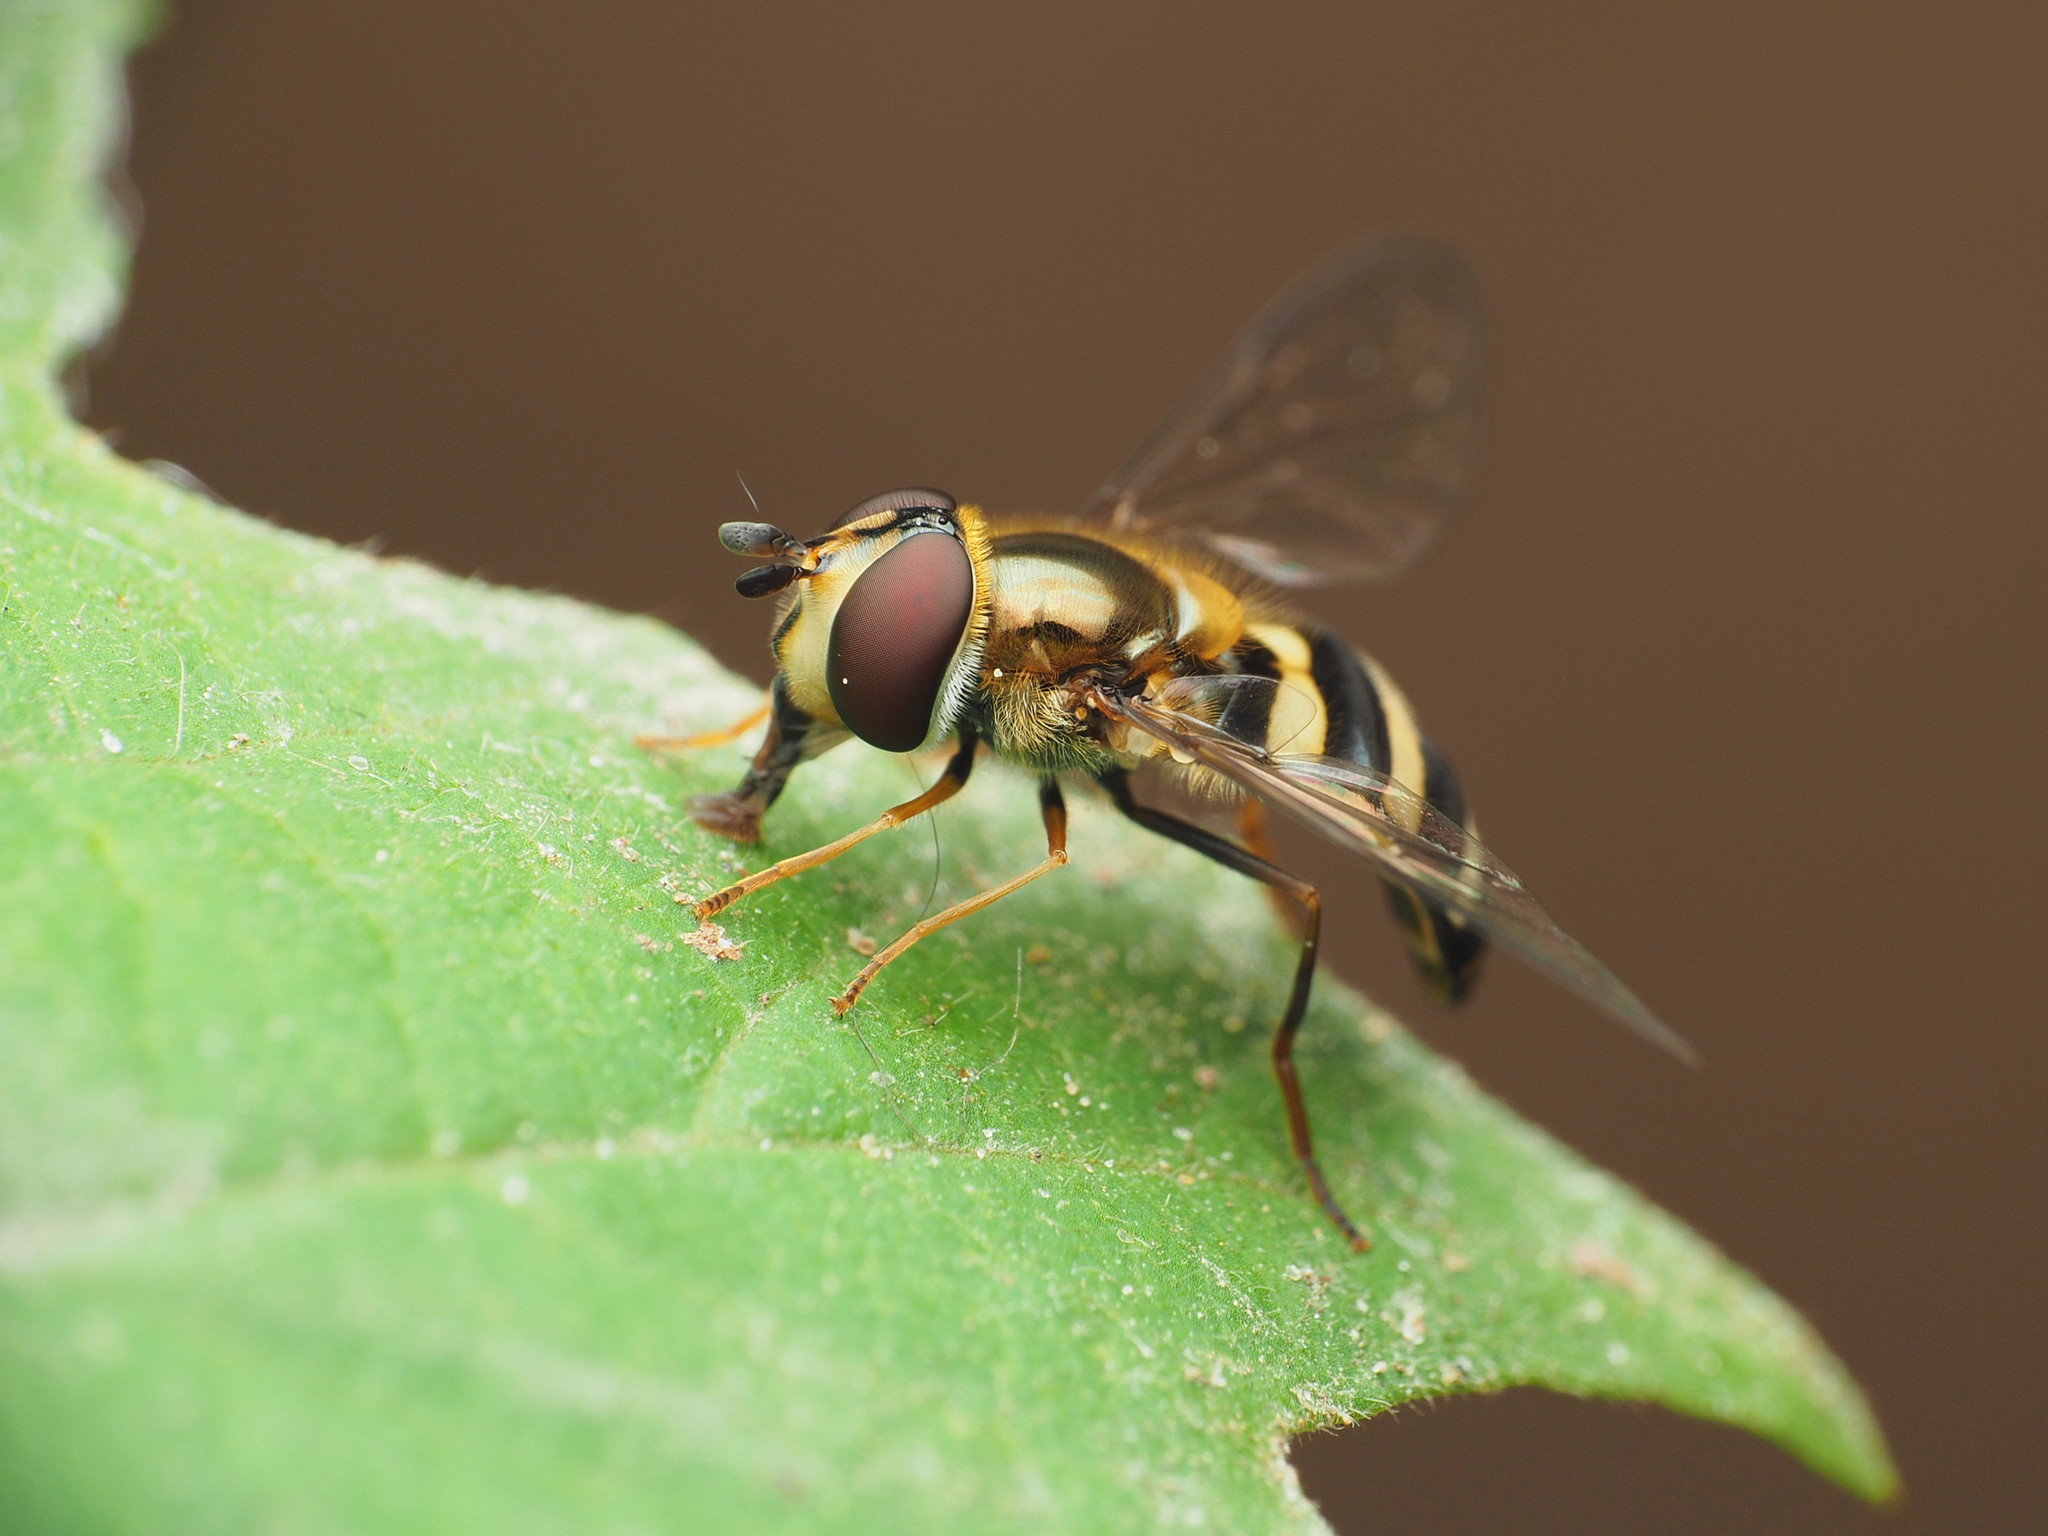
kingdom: Animalia
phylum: Arthropoda
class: Insecta
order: Diptera
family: Syrphidae
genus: Eupeodes
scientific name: Eupeodes
